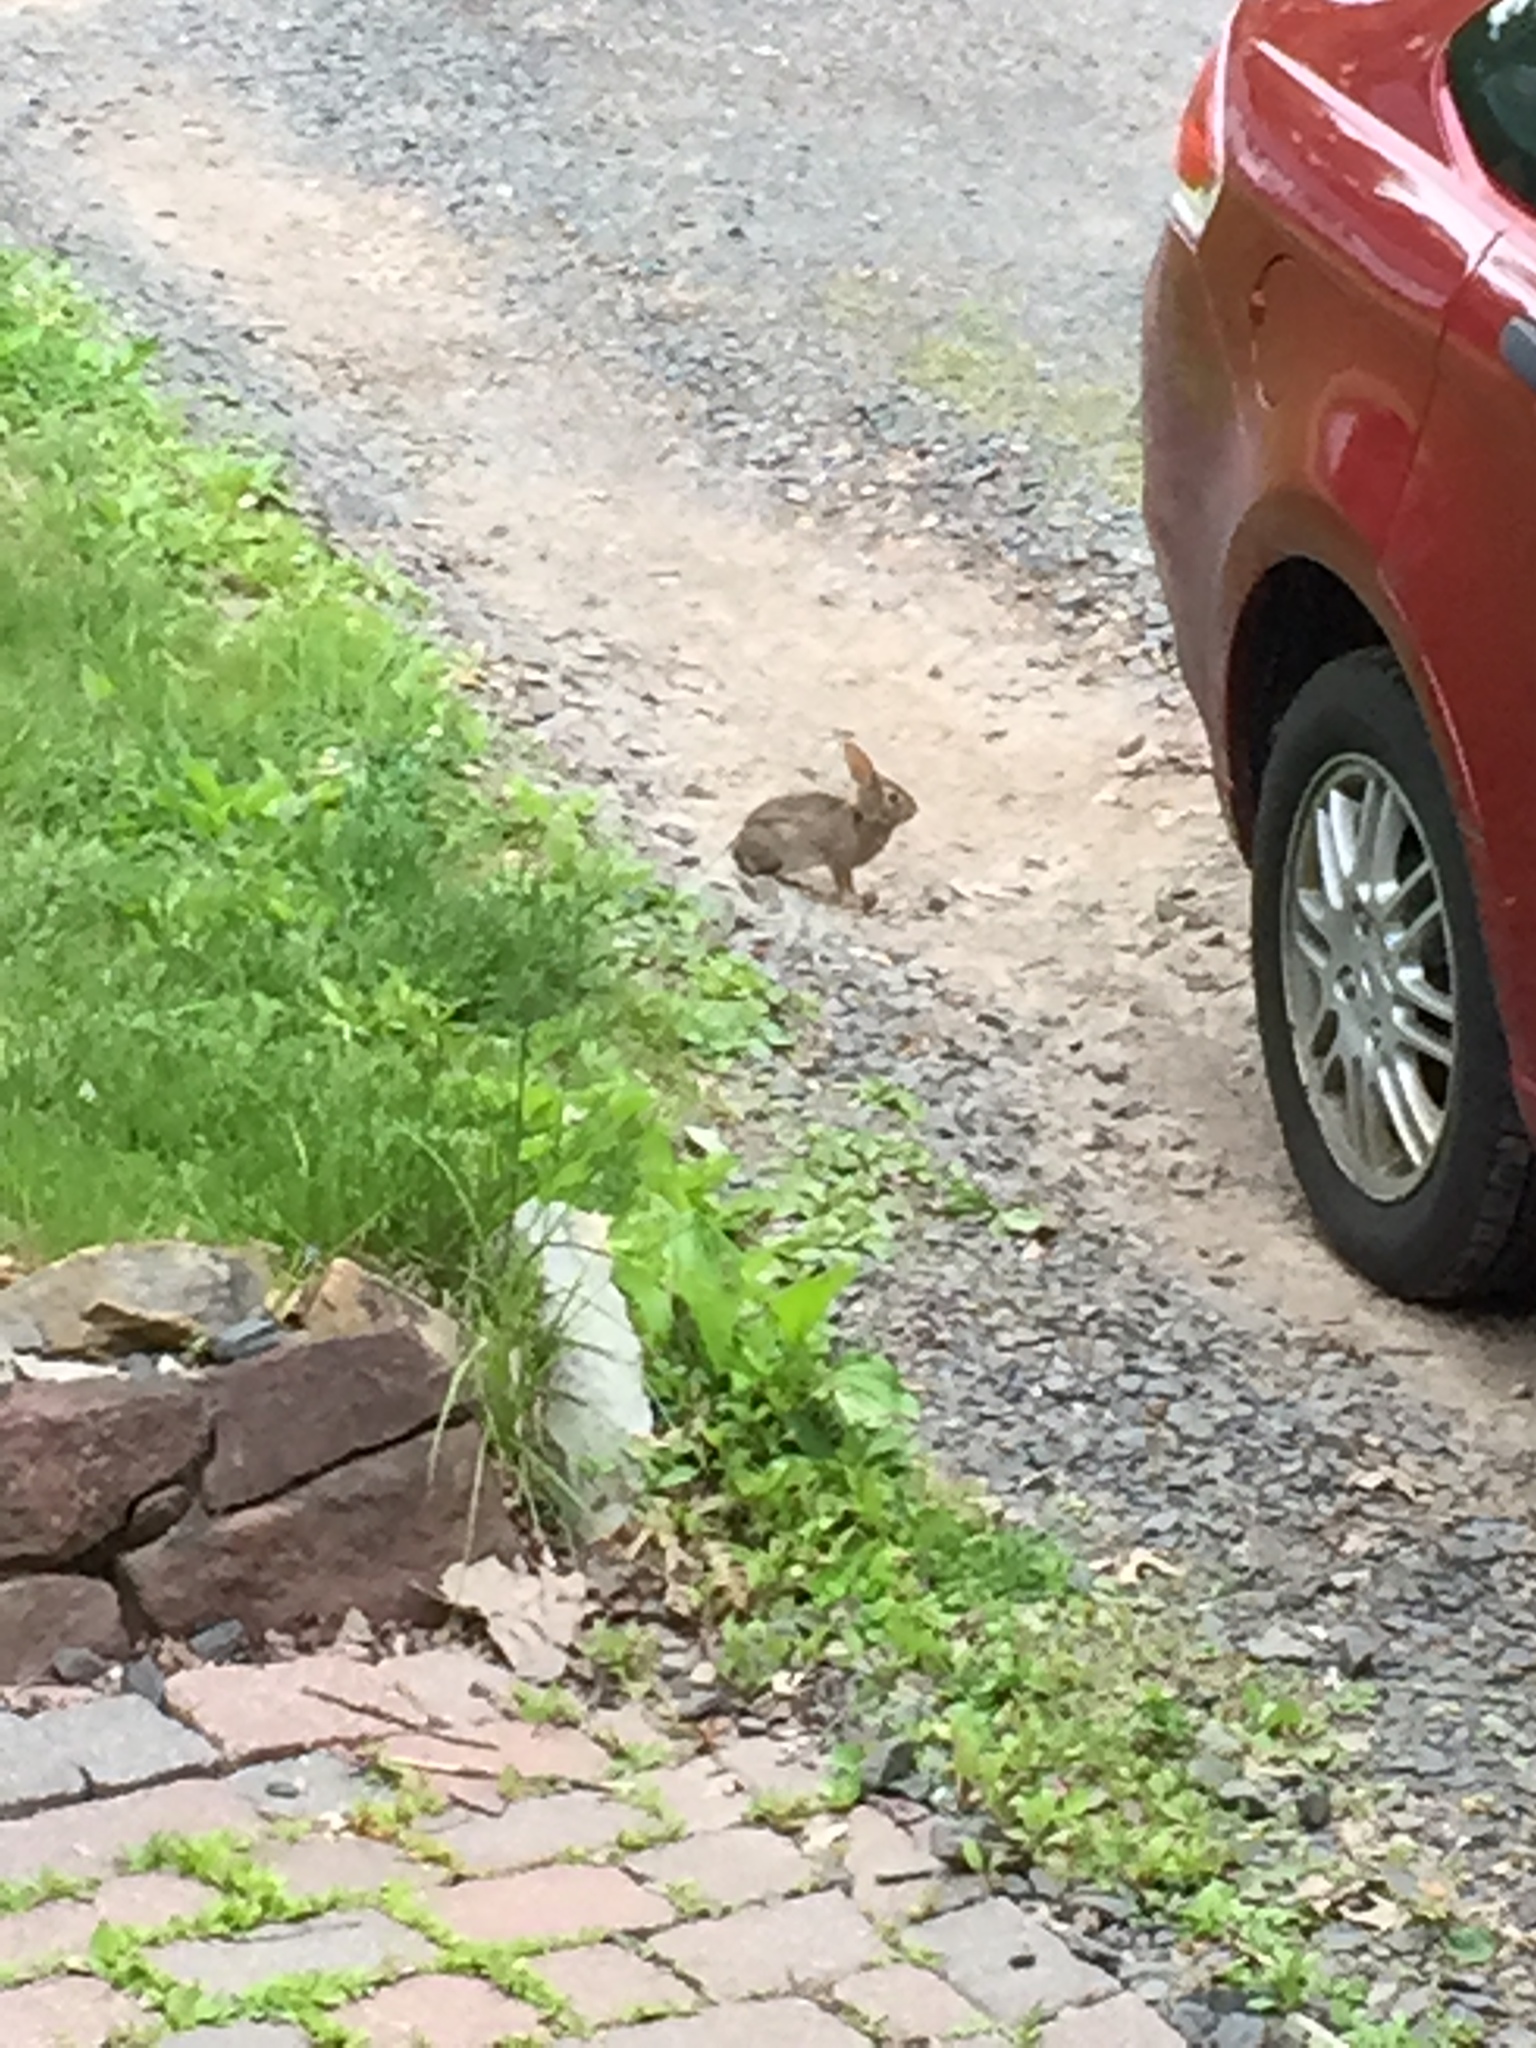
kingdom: Animalia
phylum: Chordata
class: Mammalia
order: Lagomorpha
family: Leporidae
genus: Sylvilagus
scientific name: Sylvilagus floridanus
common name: Eastern cottontail
